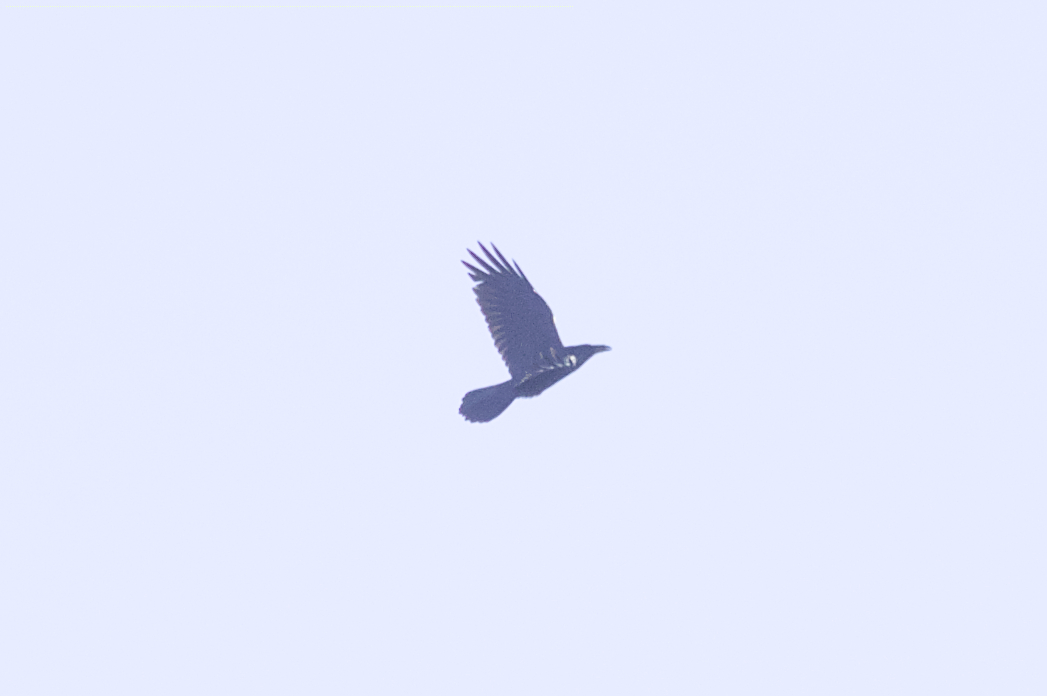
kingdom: Animalia
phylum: Chordata
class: Aves
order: Passeriformes
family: Corvidae
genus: Corvus
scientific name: Corvus corax
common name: Common raven
